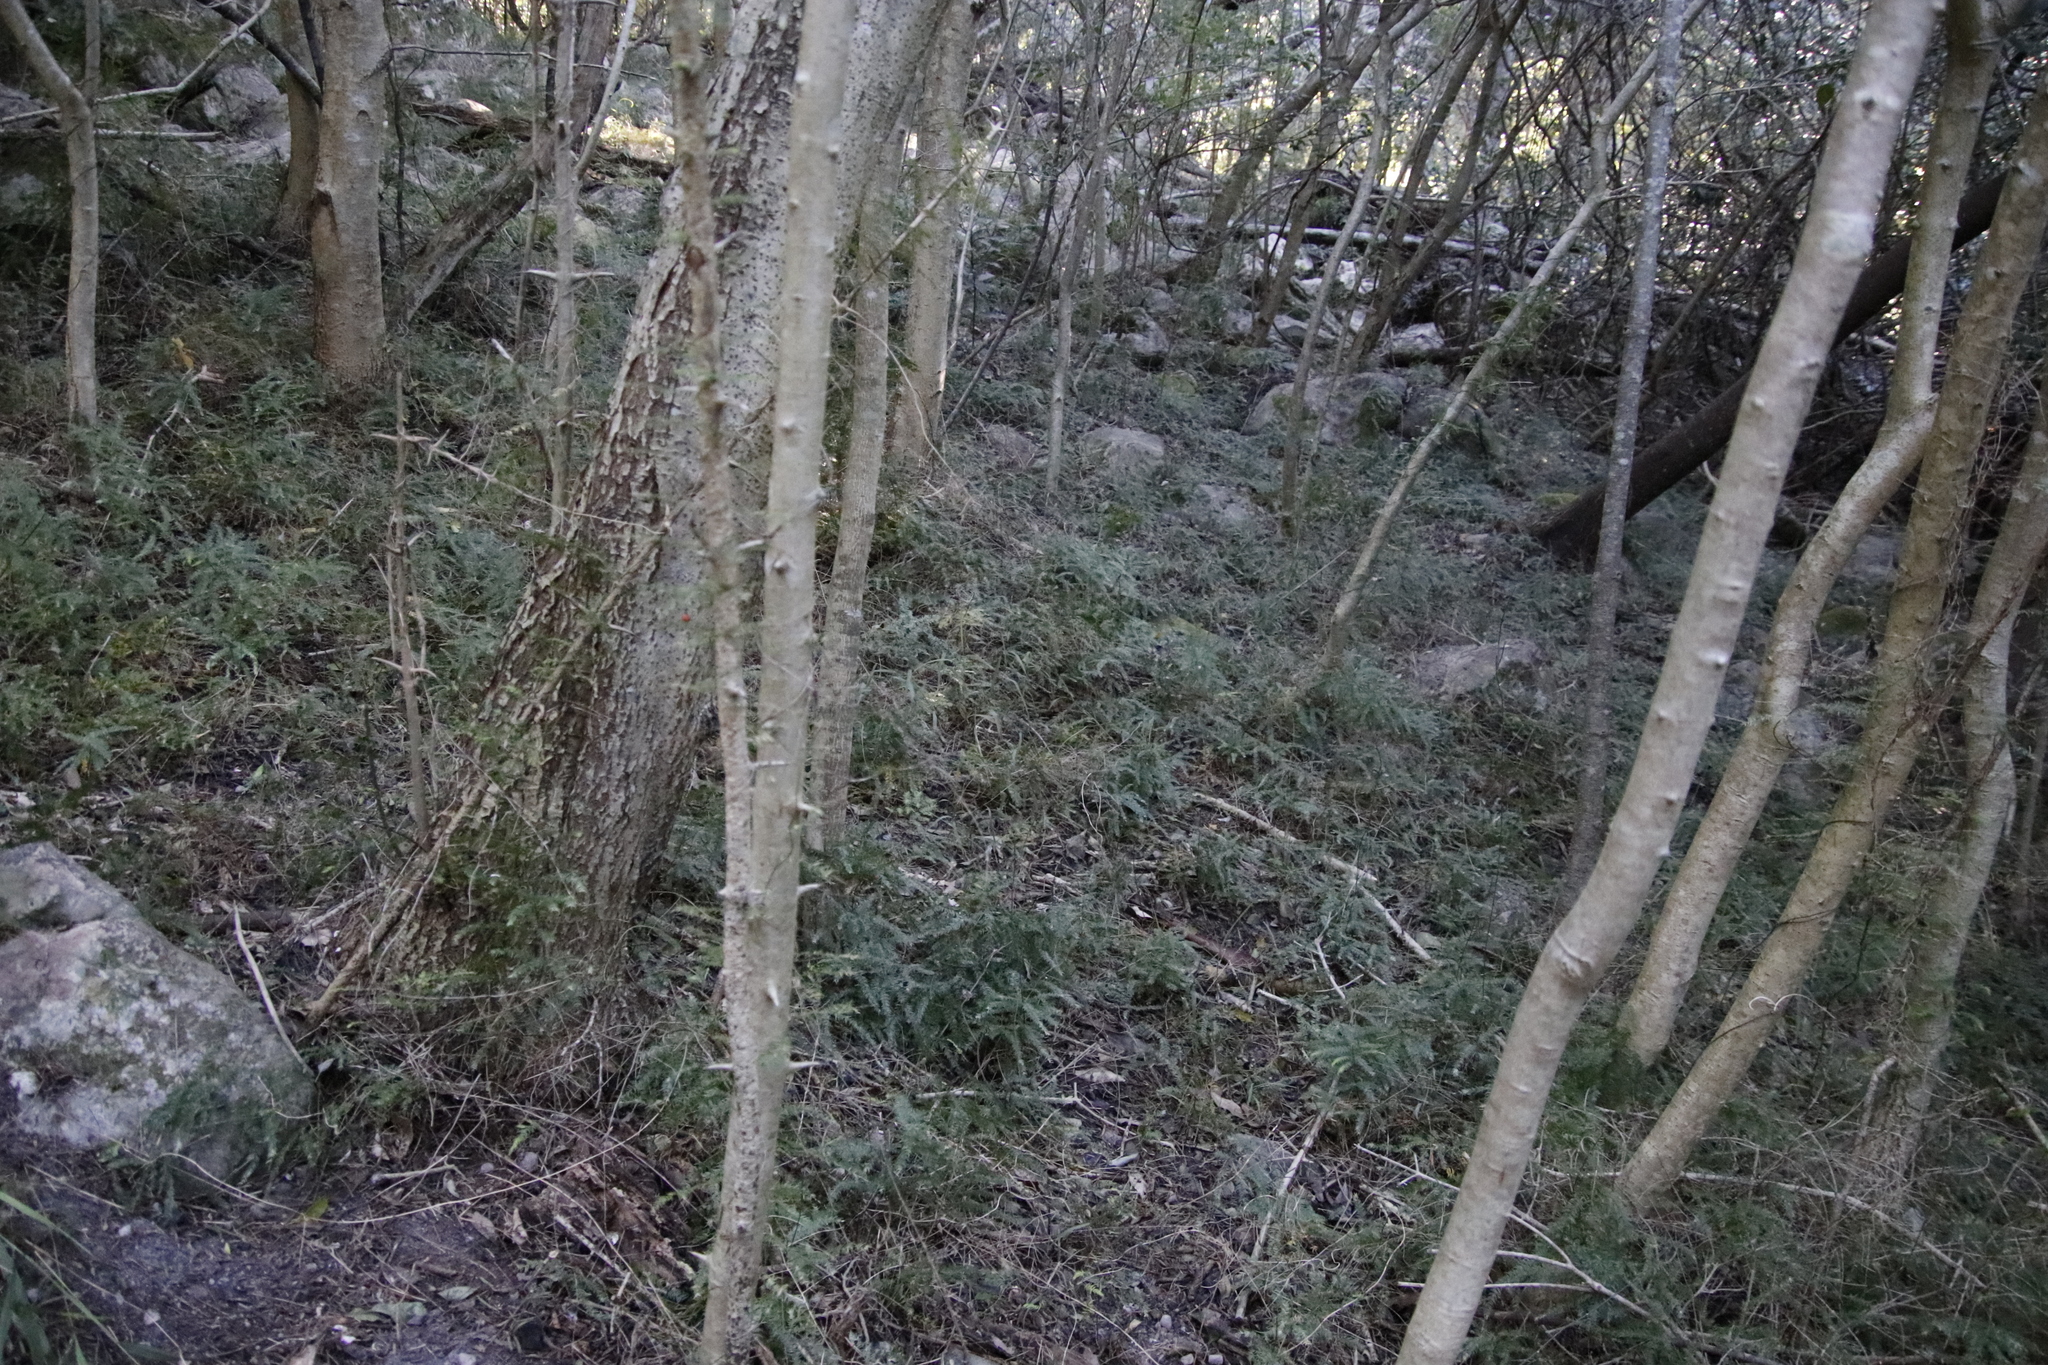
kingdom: Plantae
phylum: Tracheophyta
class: Liliopsida
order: Asparagales
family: Asparagaceae
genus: Asparagus
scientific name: Asparagus scandens
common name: Asparagus-fern
